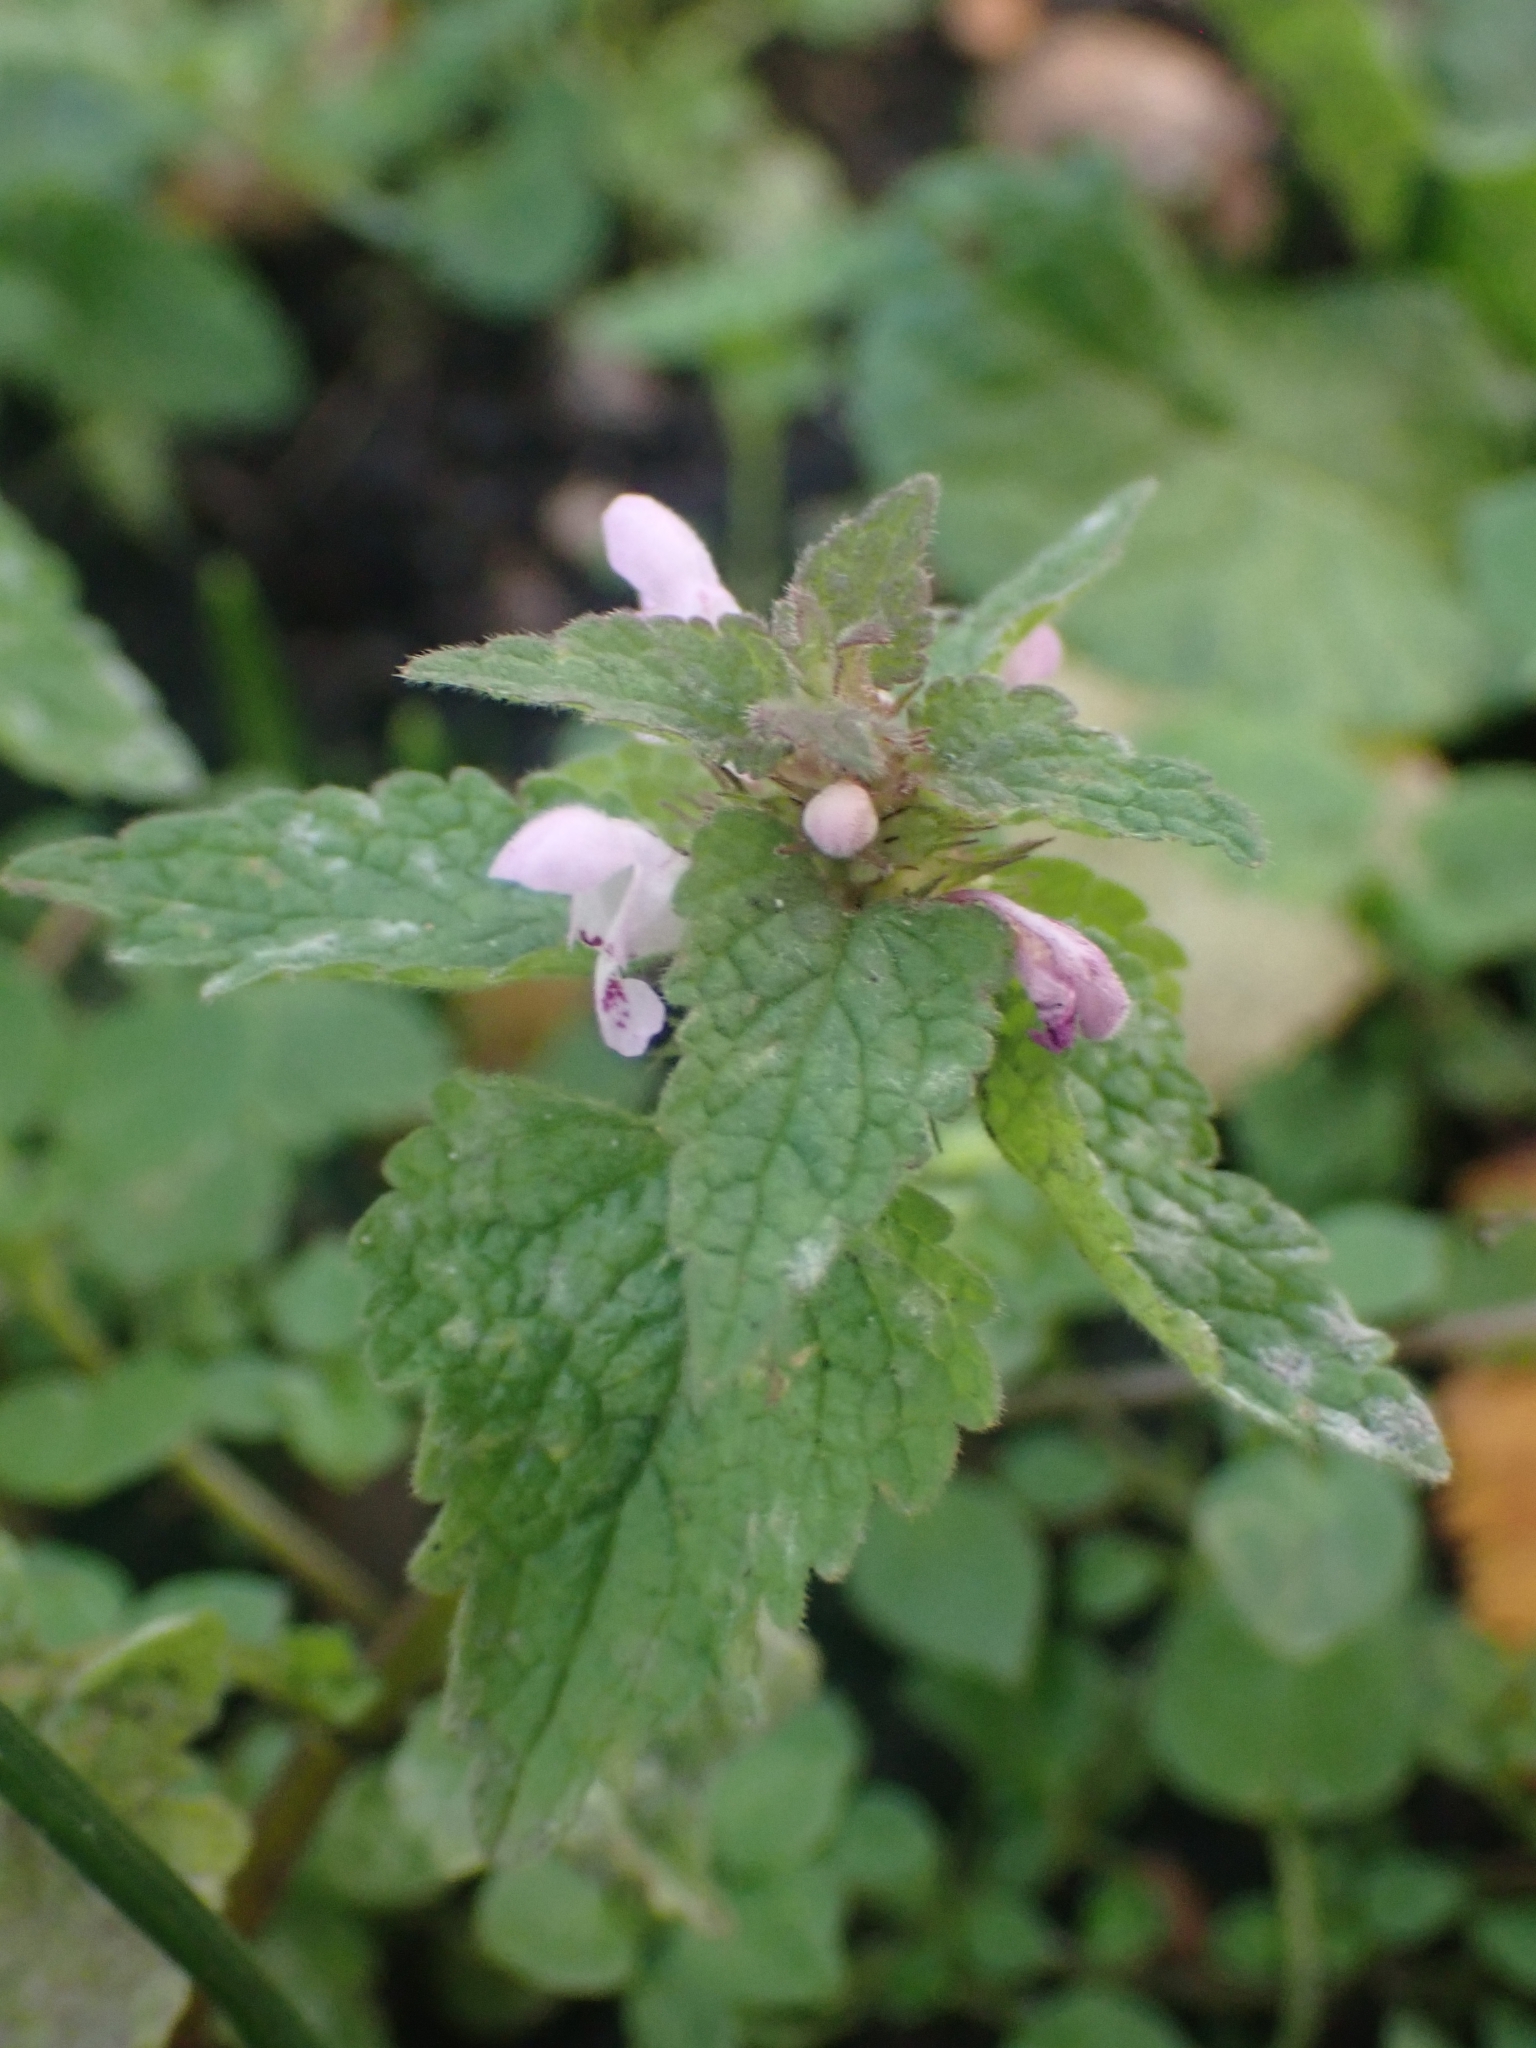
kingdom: Plantae
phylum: Tracheophyta
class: Magnoliopsida
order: Lamiales
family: Lamiaceae
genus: Lamium
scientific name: Lamium purpureum
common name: Red dead-nettle
